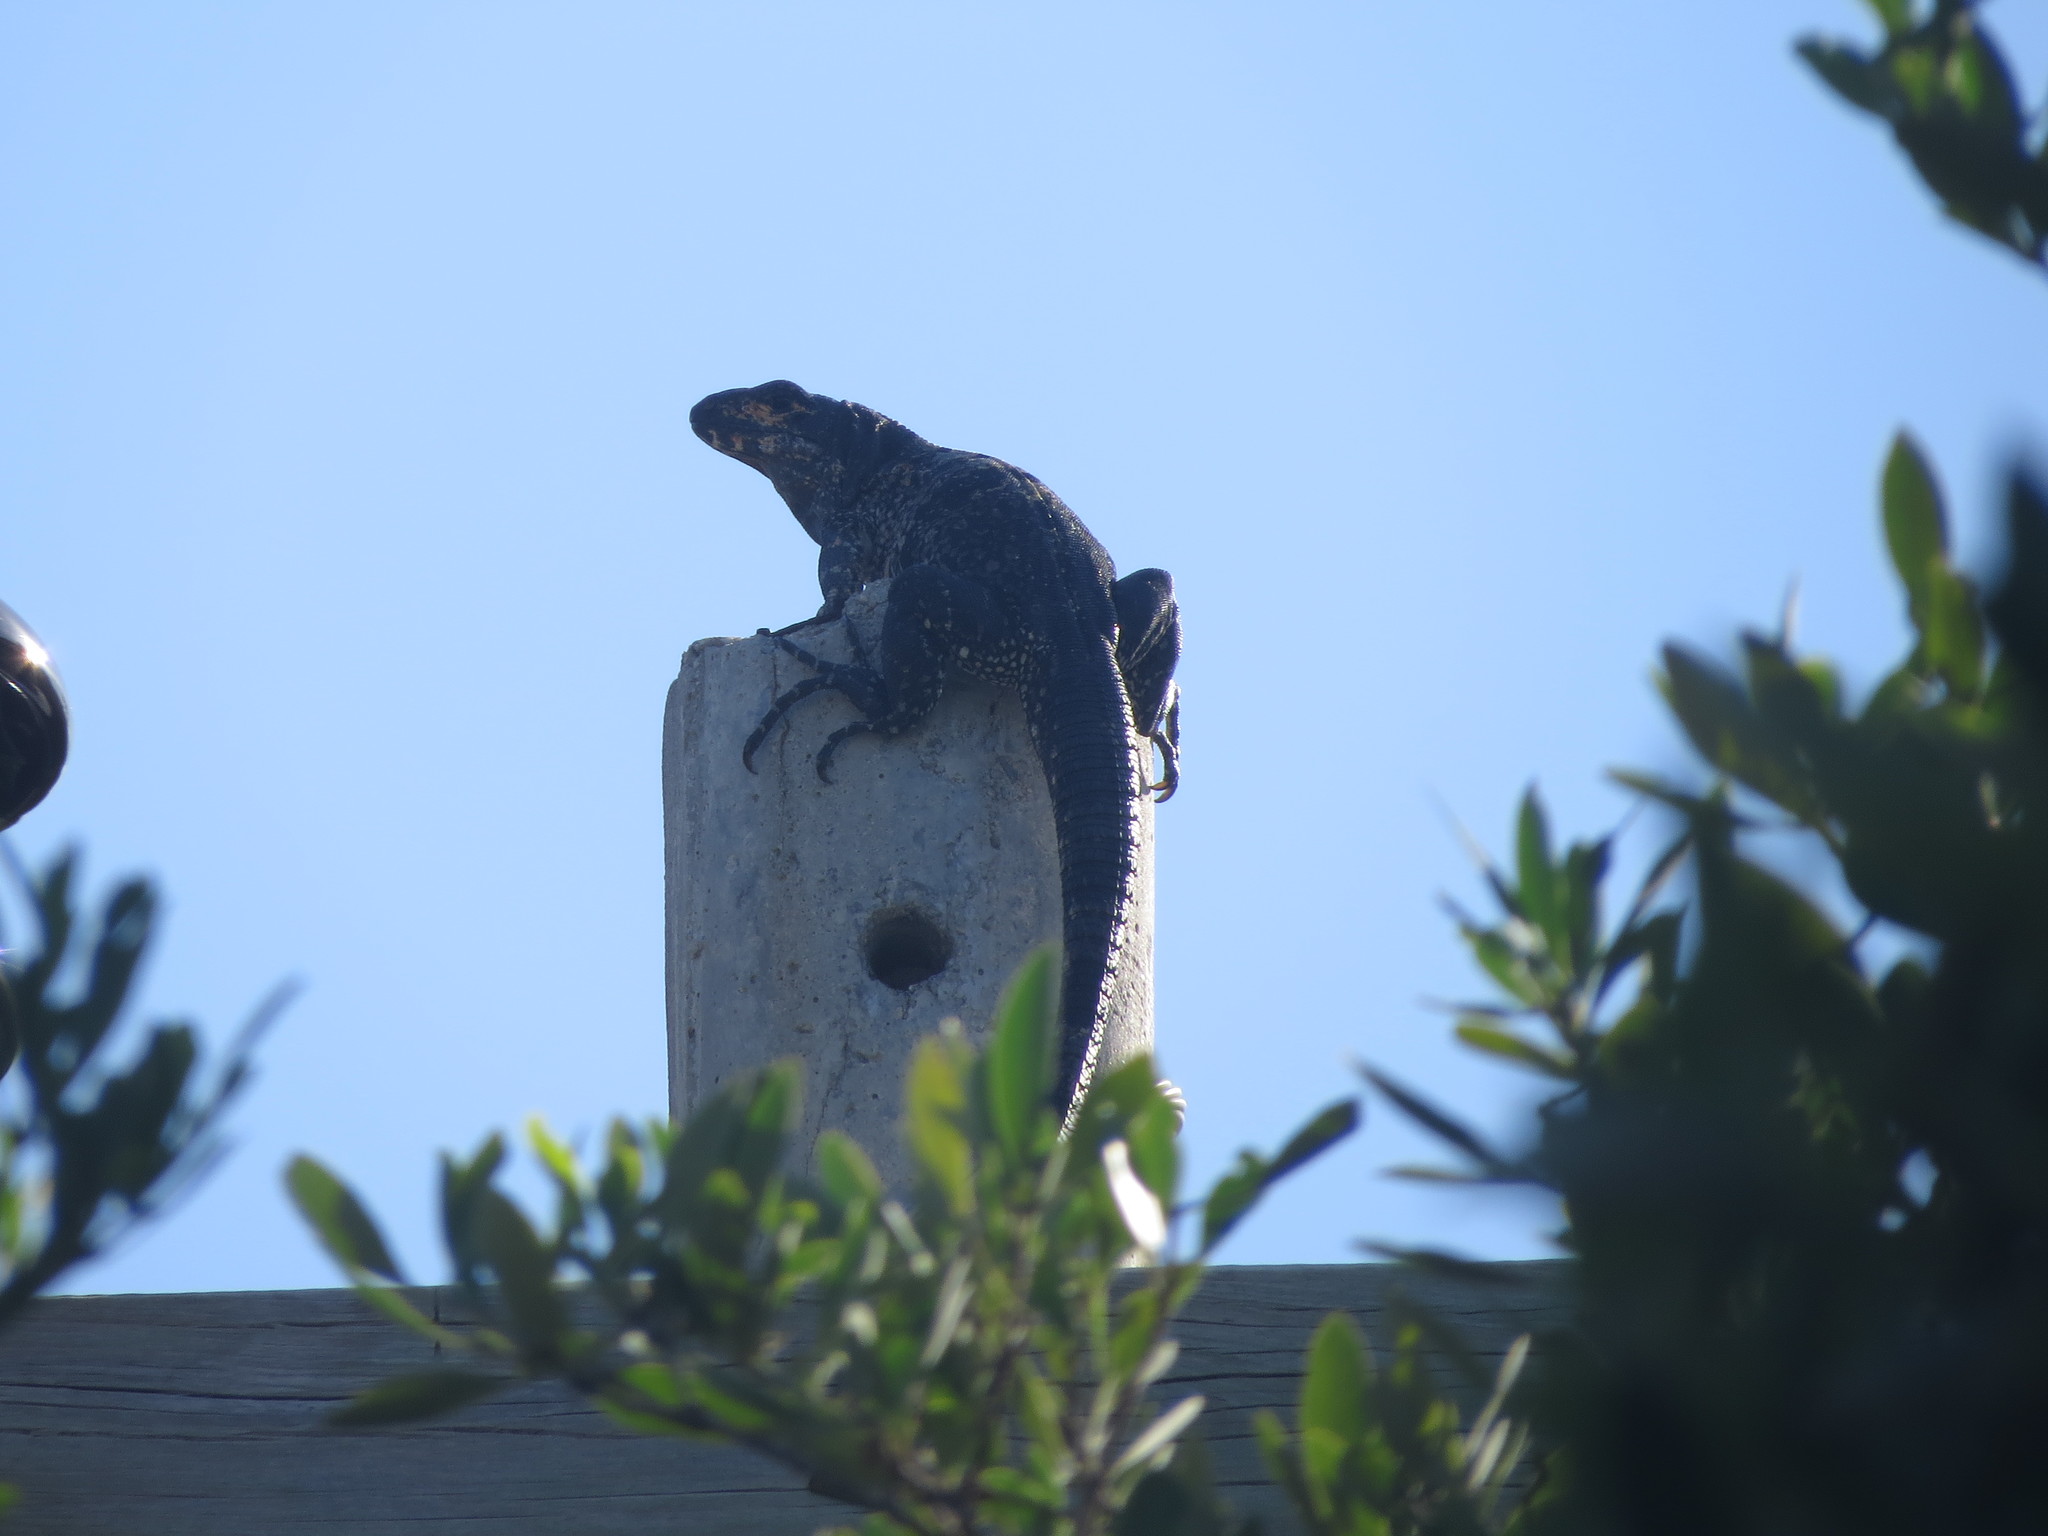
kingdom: Animalia
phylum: Chordata
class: Squamata
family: Iguanidae
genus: Ctenosaura
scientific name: Ctenosaura similis
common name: Black spiny-tailed iguana
